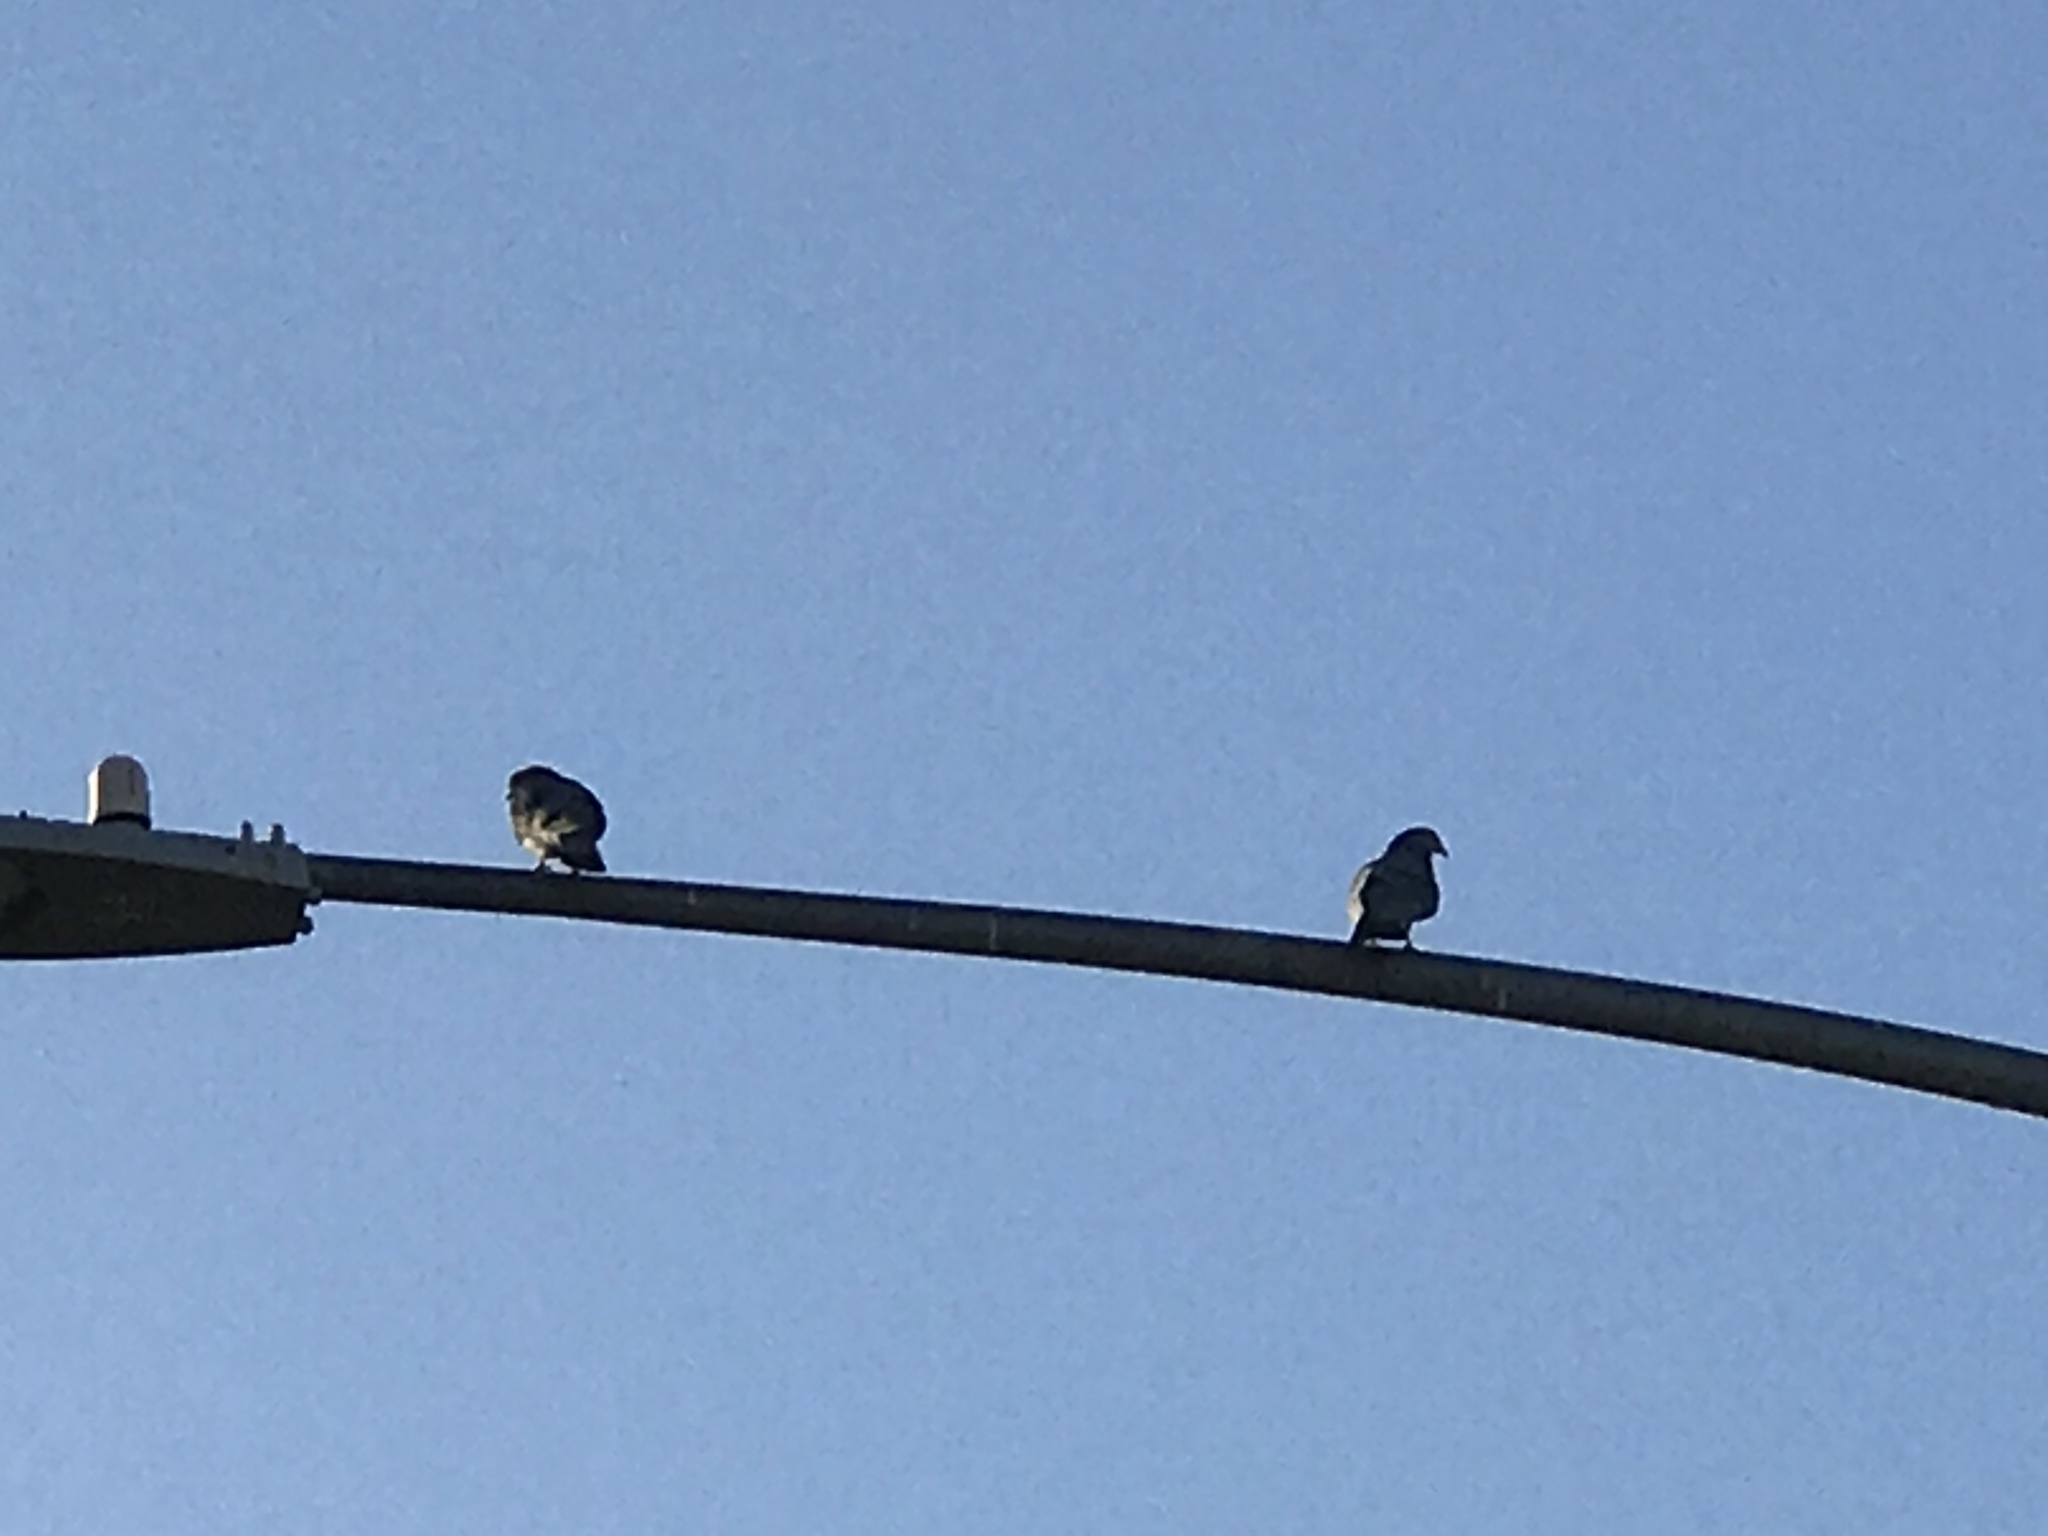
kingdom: Animalia
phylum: Chordata
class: Aves
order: Columbiformes
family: Columbidae
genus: Columba
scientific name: Columba livia
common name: Rock pigeon
